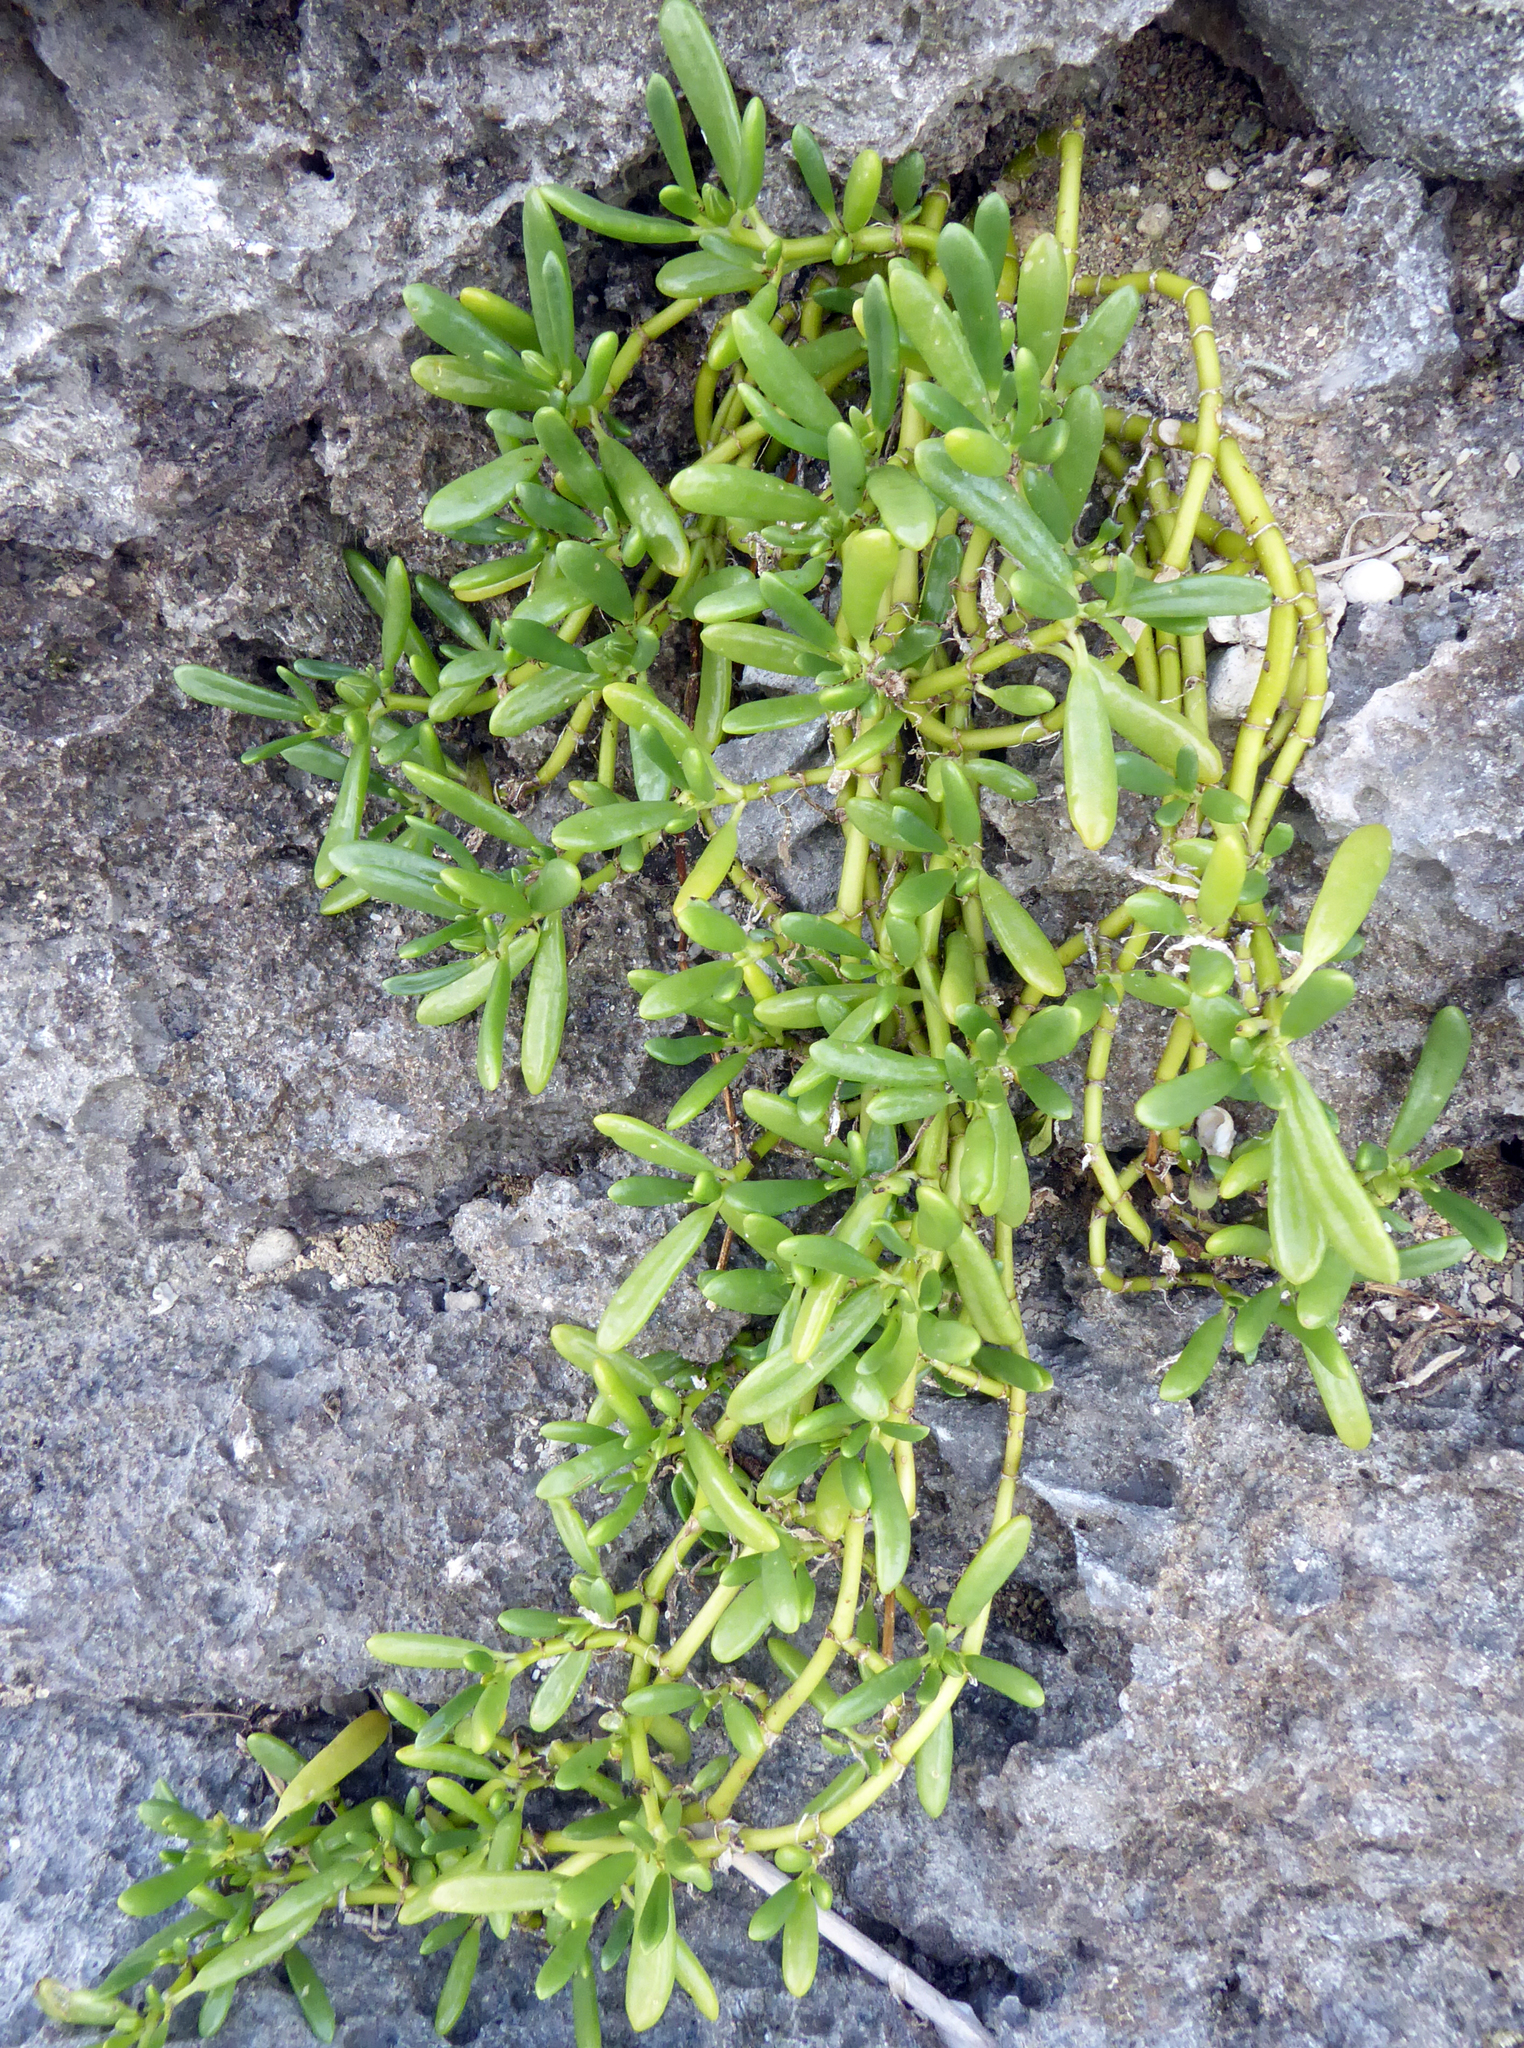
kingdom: Plantae
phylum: Tracheophyta
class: Magnoliopsida
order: Caryophyllales
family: Aizoaceae
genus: Sesuvium
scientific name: Sesuvium portulacastrum
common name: Sea-purslane
